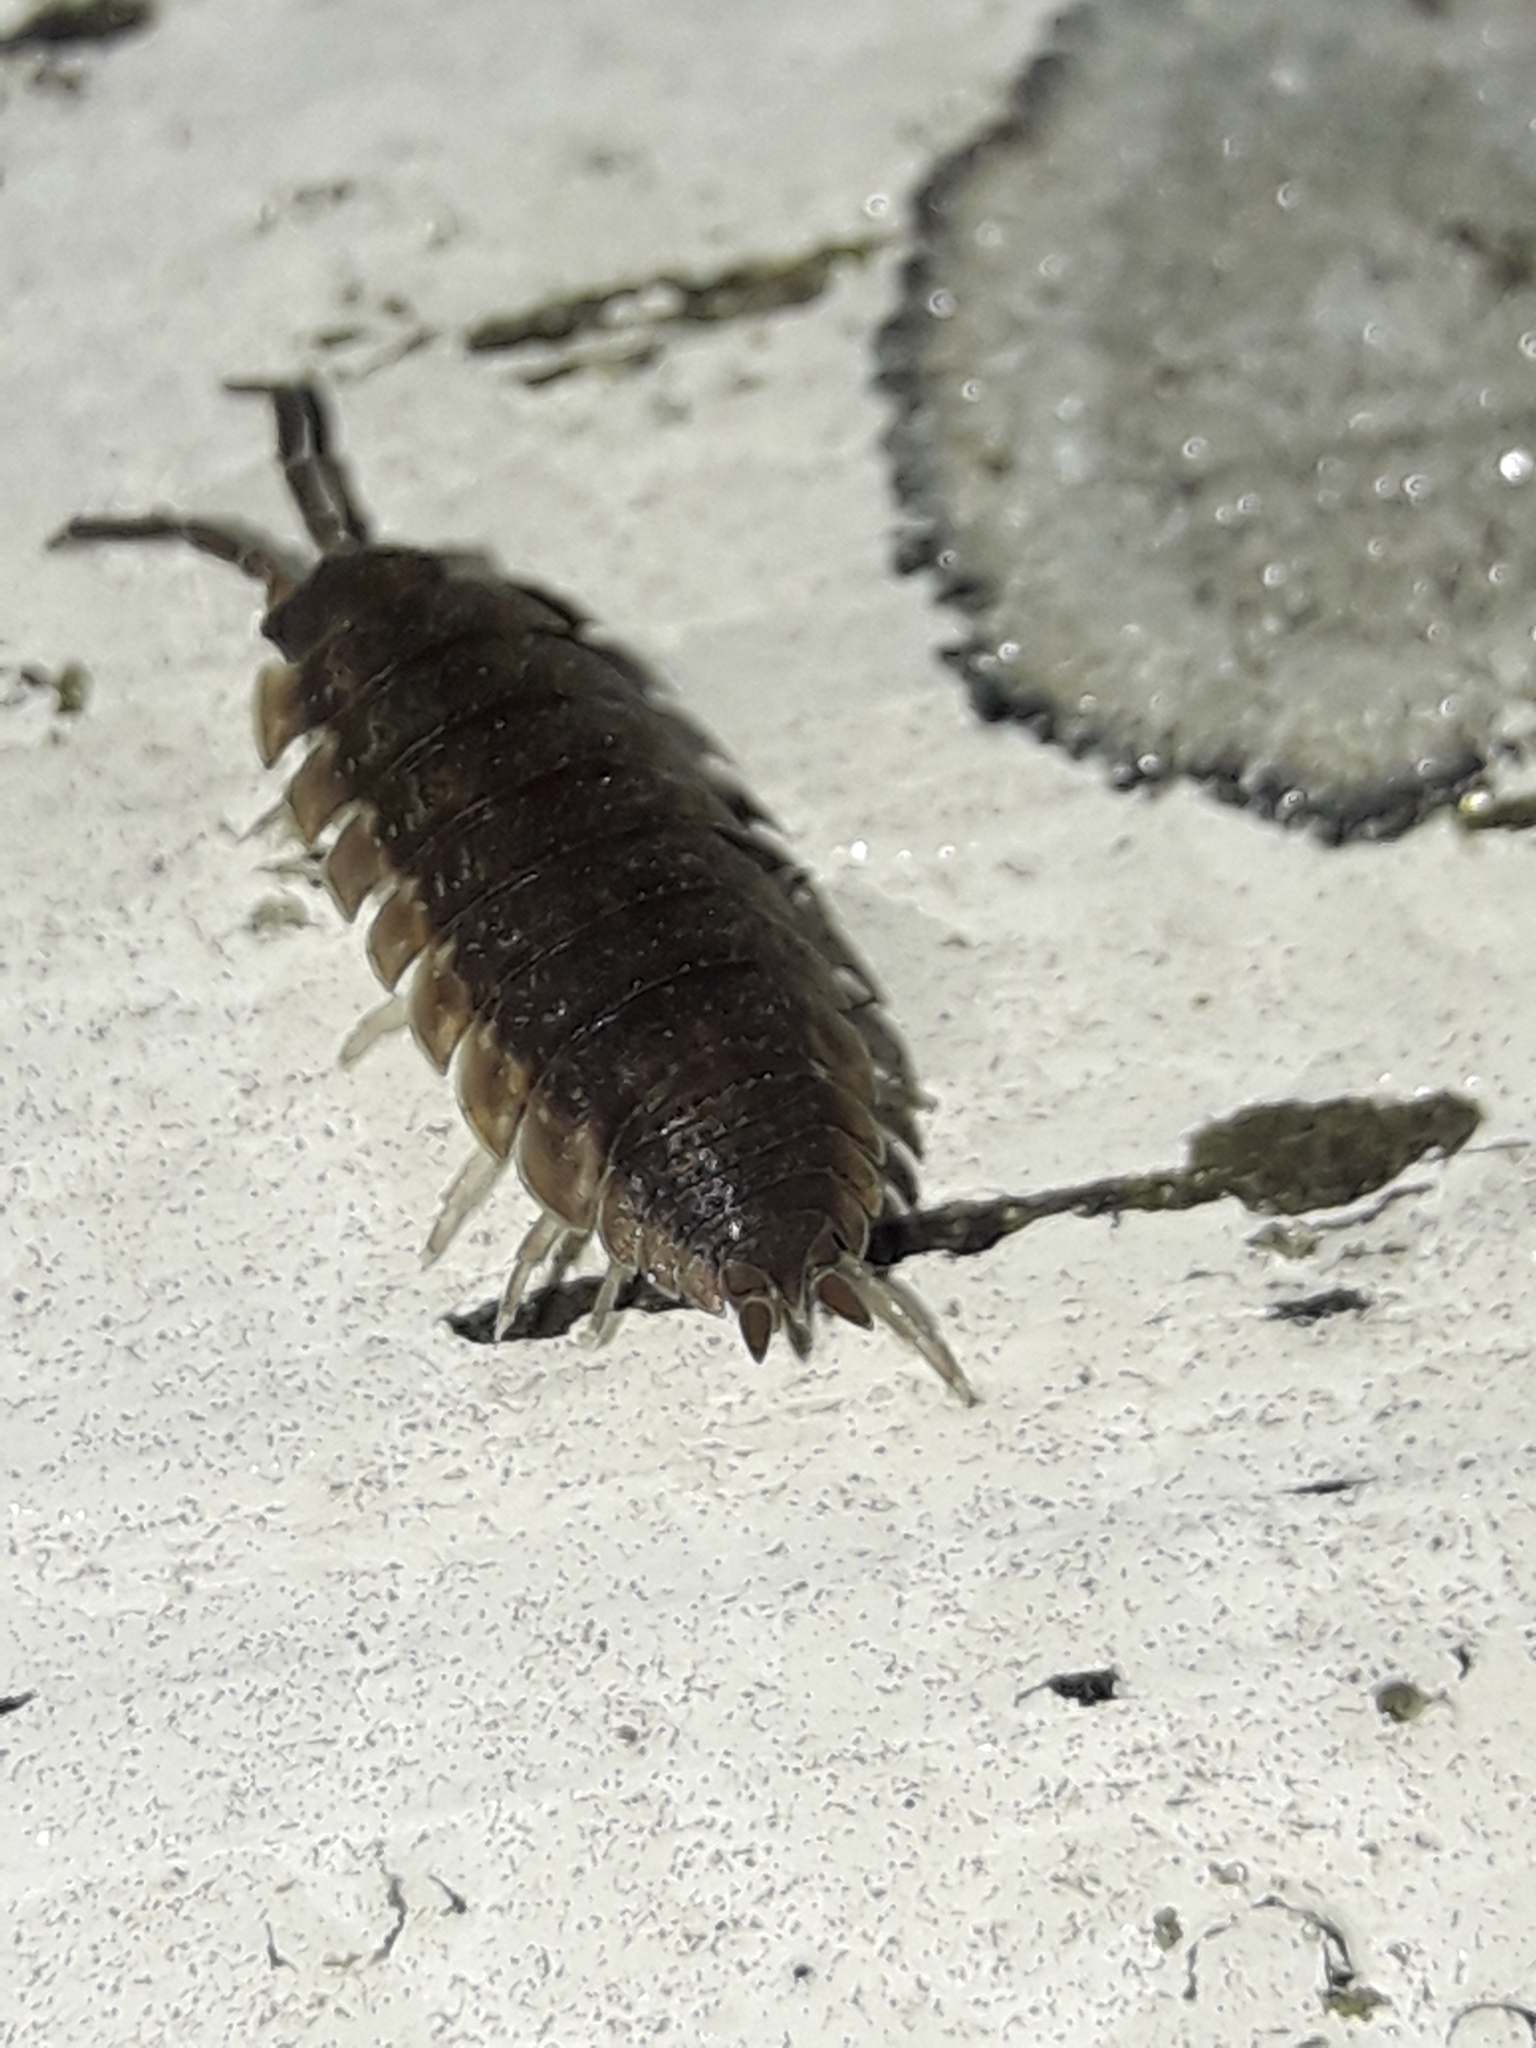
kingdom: Animalia
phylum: Arthropoda
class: Malacostraca
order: Isopoda
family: Porcellionidae
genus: Porcellio
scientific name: Porcellio scaber
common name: Common rough woodlouse
